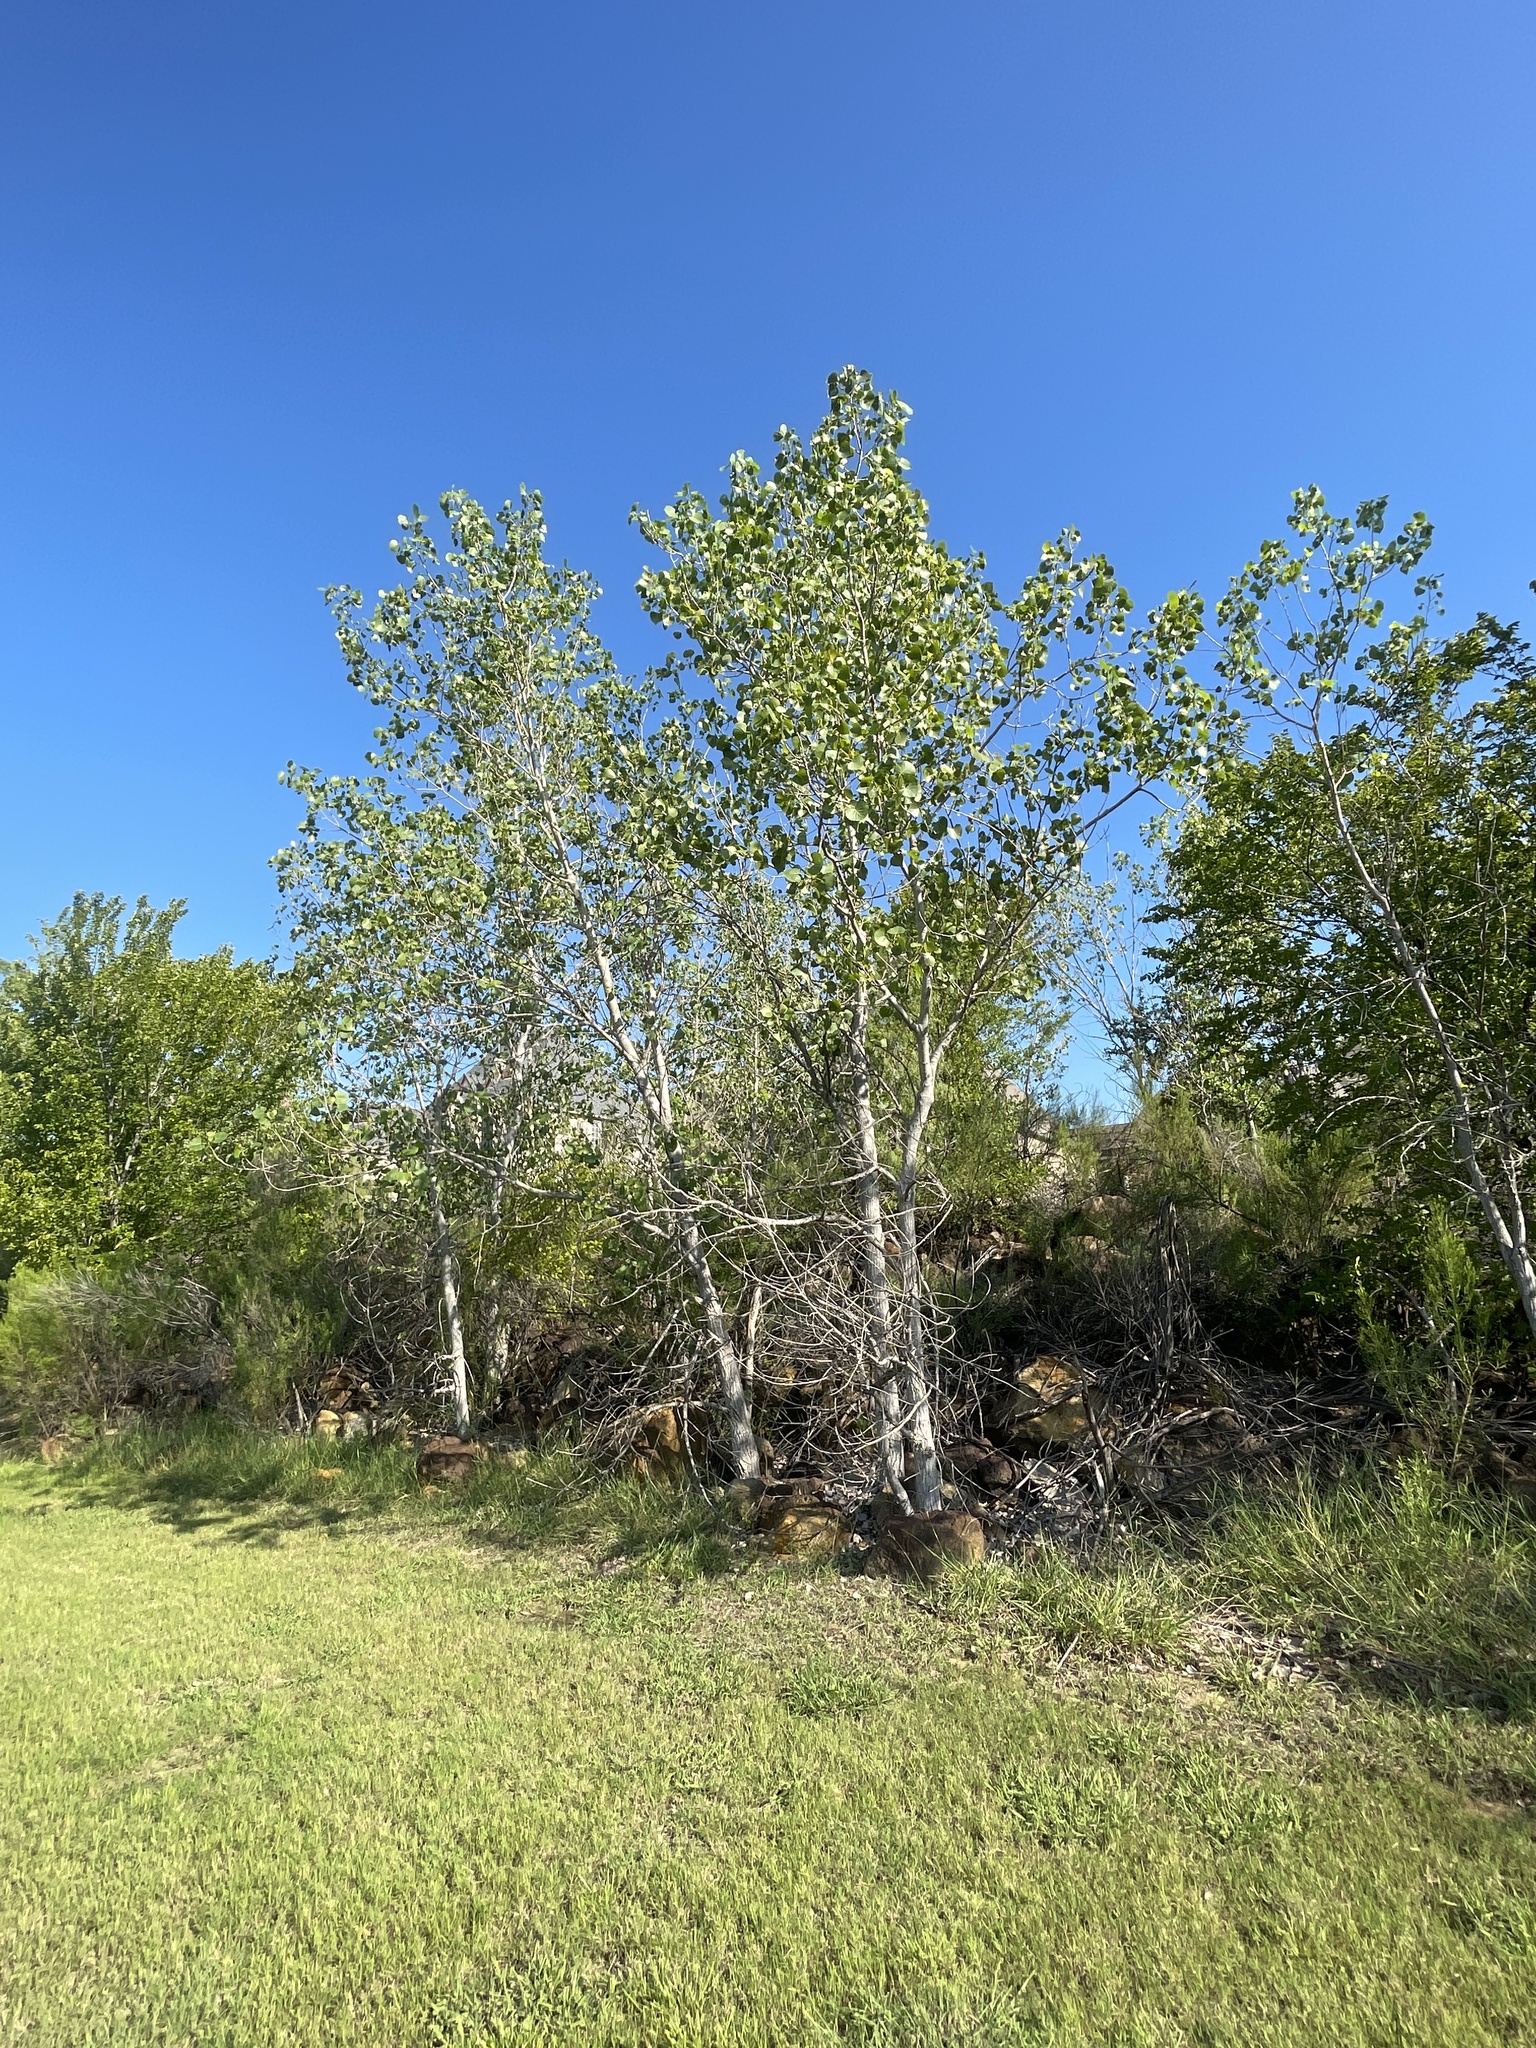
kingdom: Plantae
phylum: Tracheophyta
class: Magnoliopsida
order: Malpighiales
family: Salicaceae
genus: Populus
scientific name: Populus deltoides
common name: Eastern cottonwood
